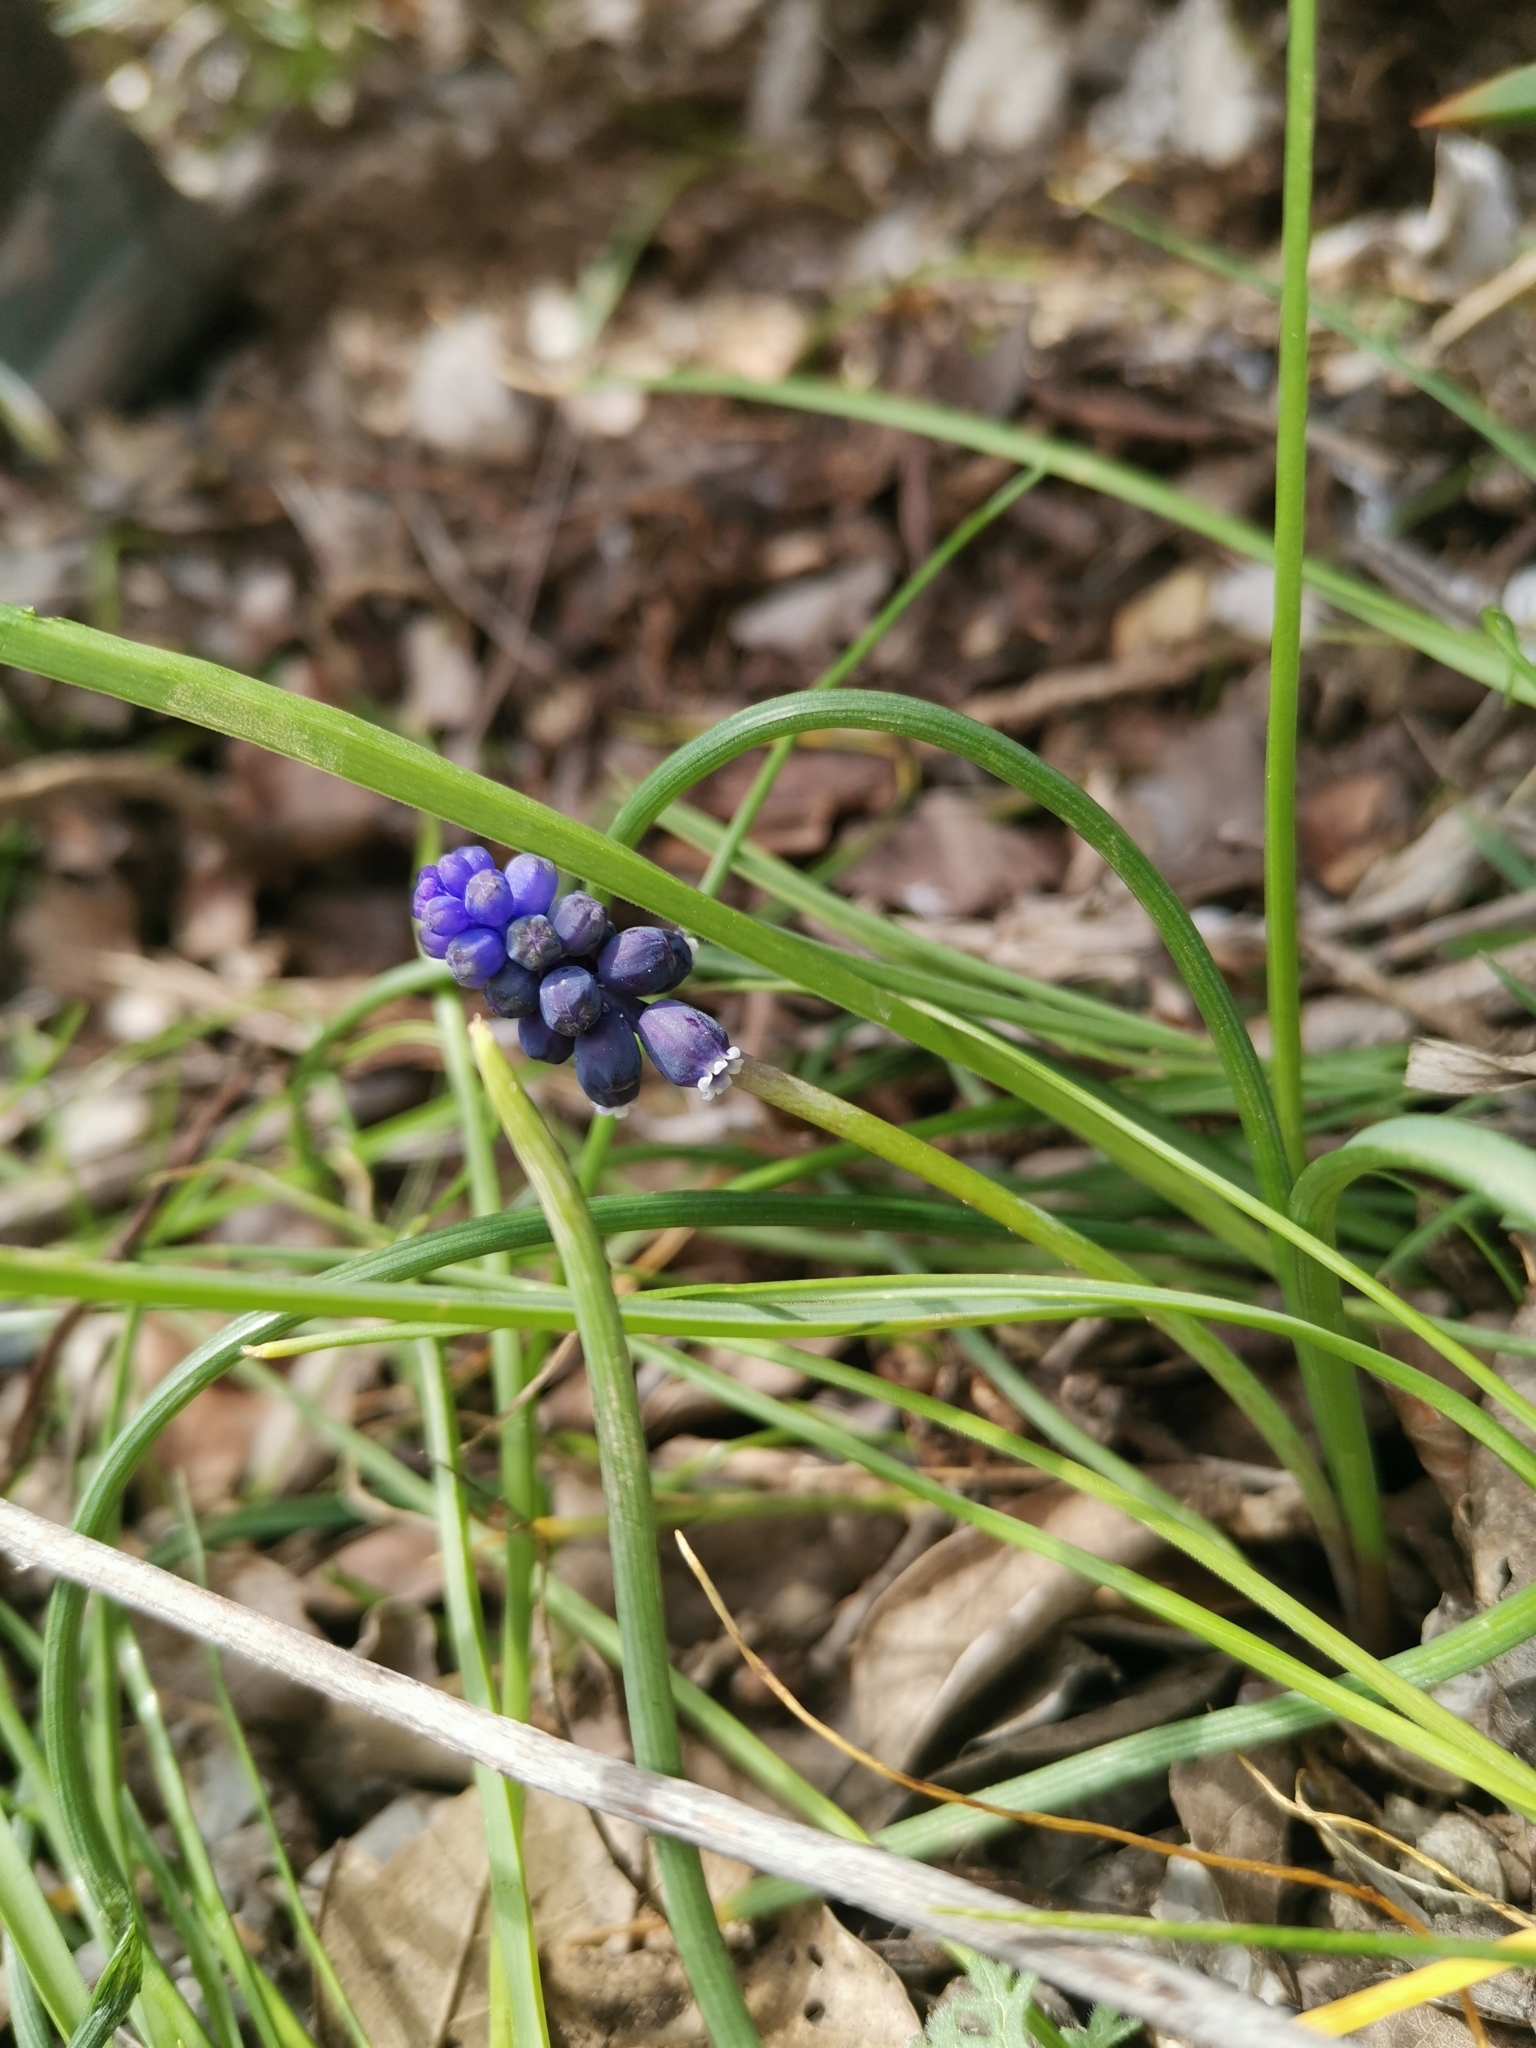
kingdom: Plantae
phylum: Tracheophyta
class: Liliopsida
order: Asparagales
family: Asparagaceae
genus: Muscari
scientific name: Muscari neglectum
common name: Grape-hyacinth
